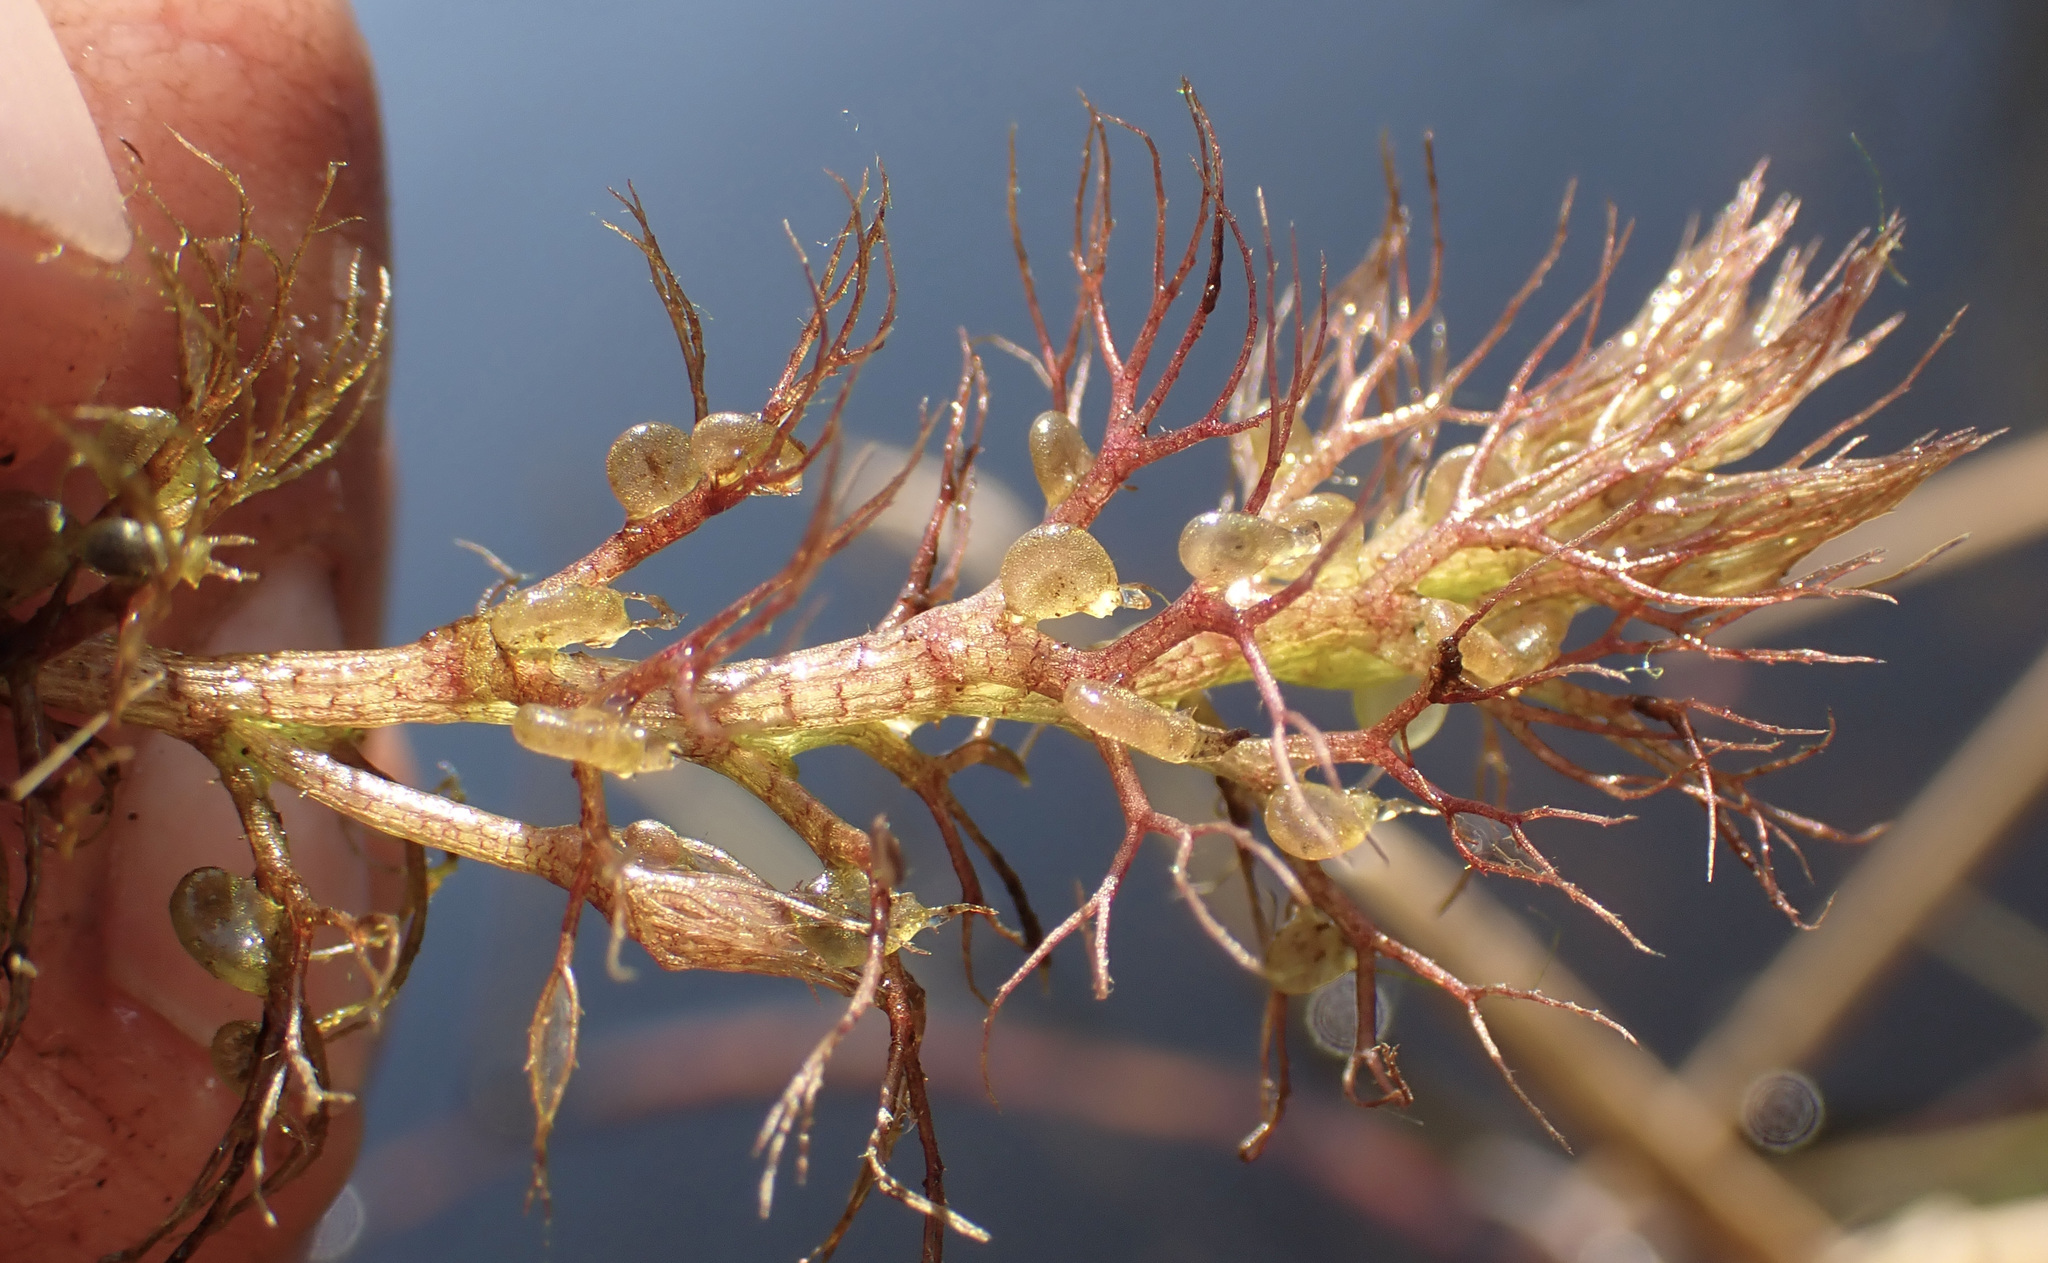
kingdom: Plantae
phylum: Tracheophyta
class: Magnoliopsida
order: Lamiales
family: Lentibulariaceae
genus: Utricularia
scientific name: Utricularia raynalii
